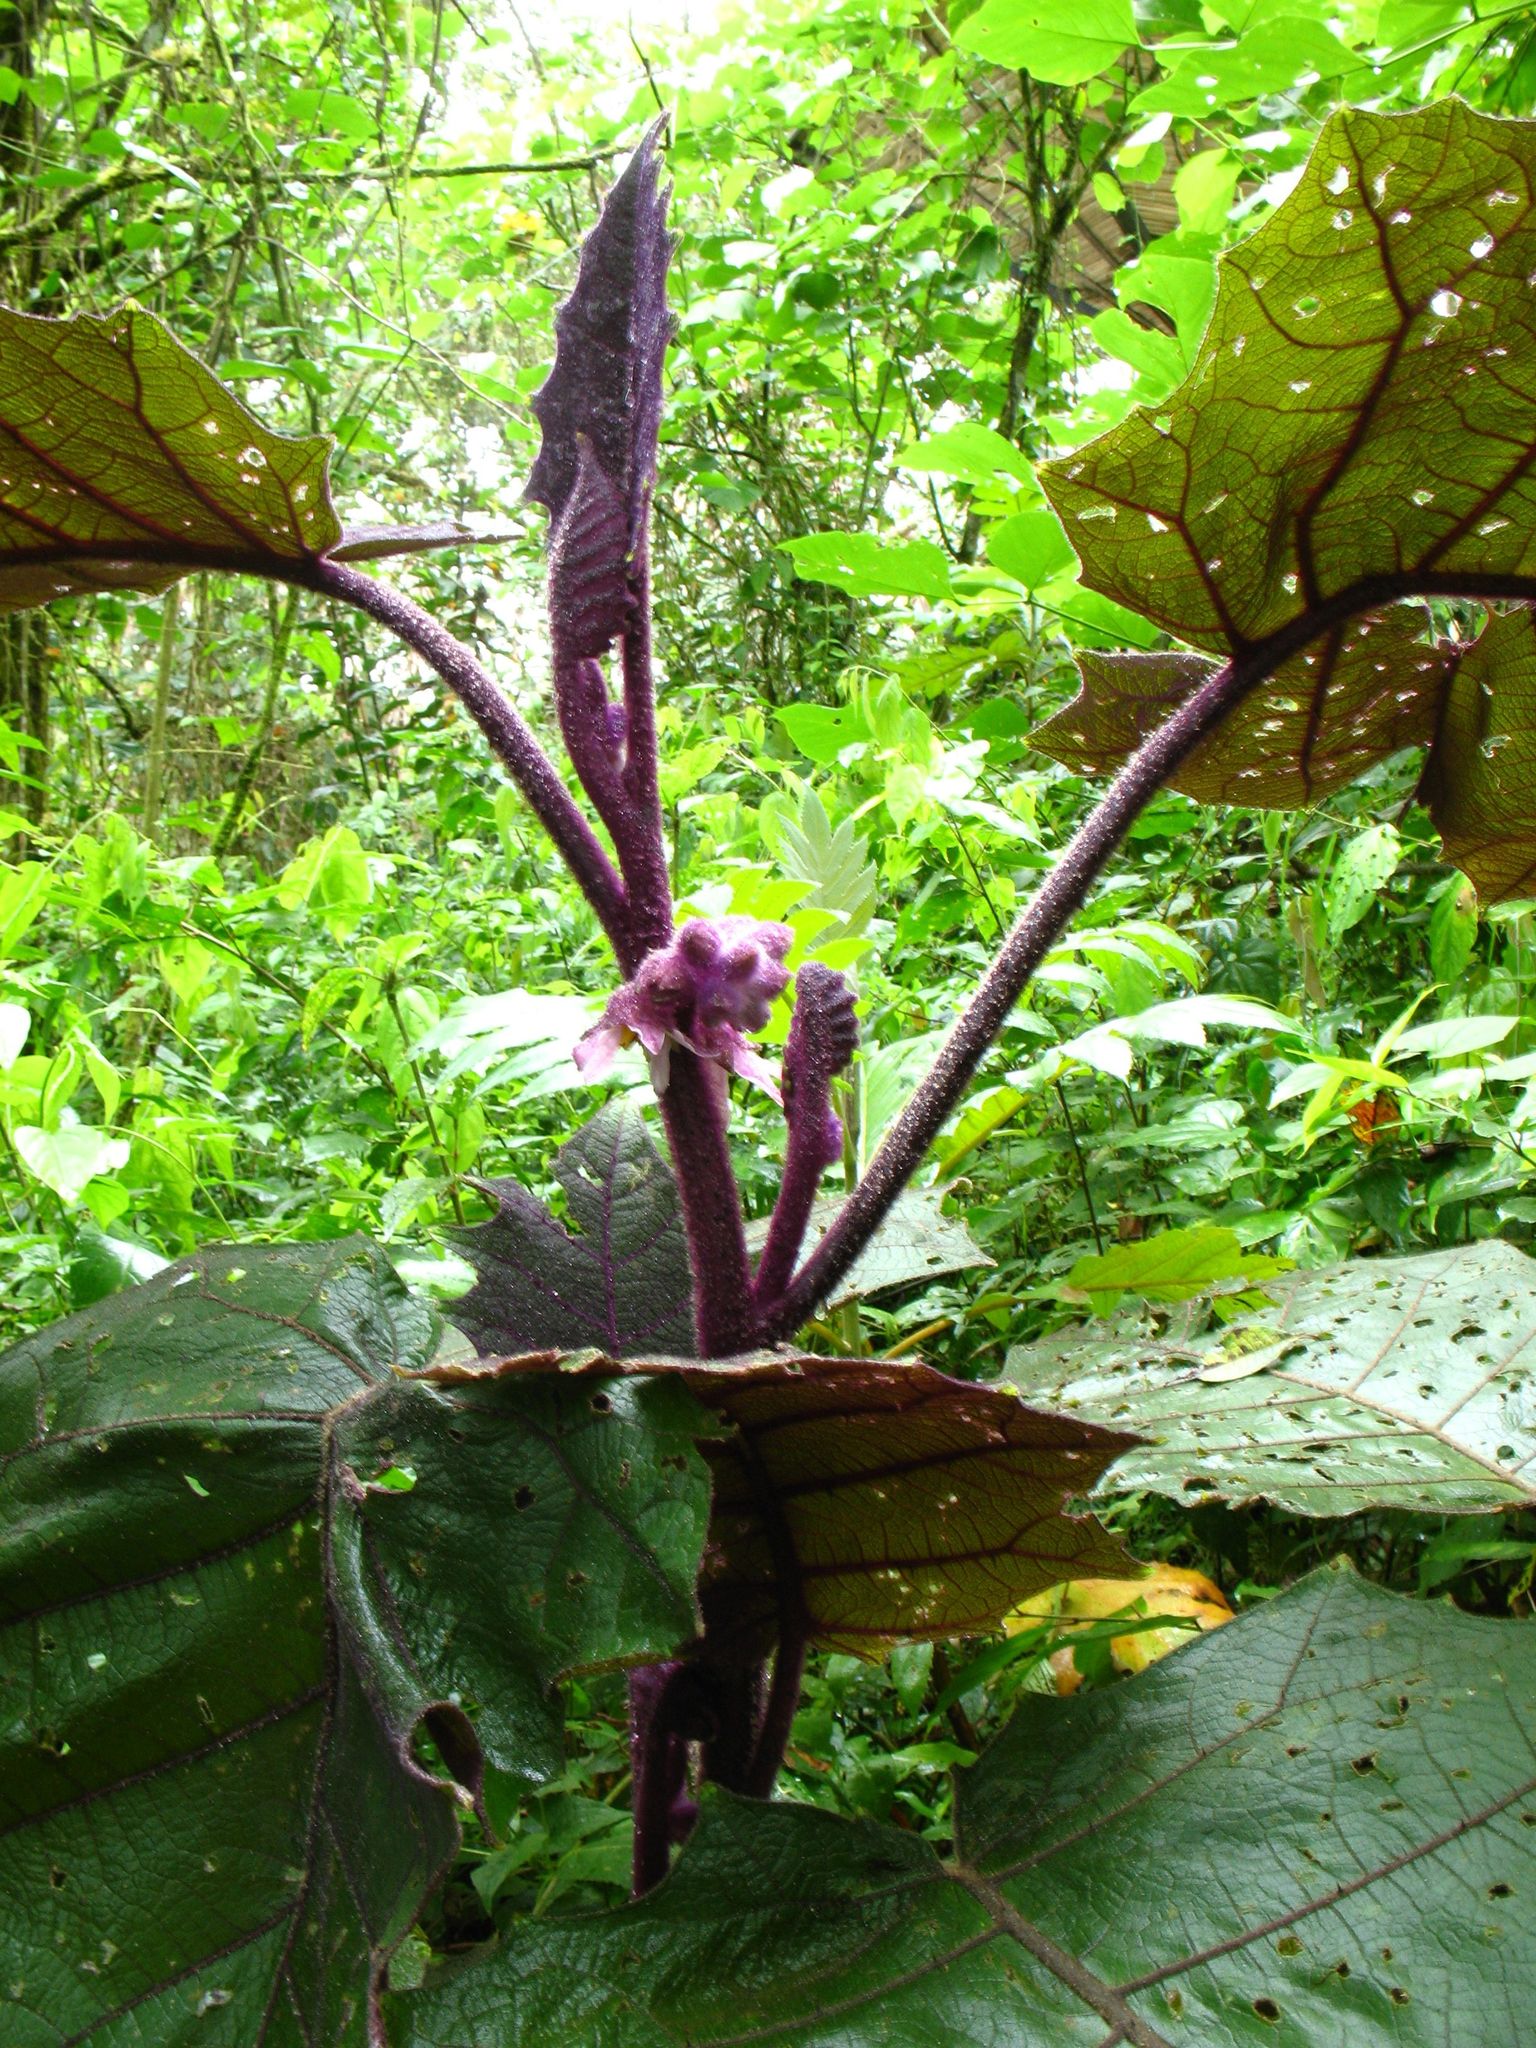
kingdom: Plantae
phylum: Tracheophyta
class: Magnoliopsida
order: Solanales
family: Solanaceae
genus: Solanum
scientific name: Solanum quitoense
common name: Quito-orange
